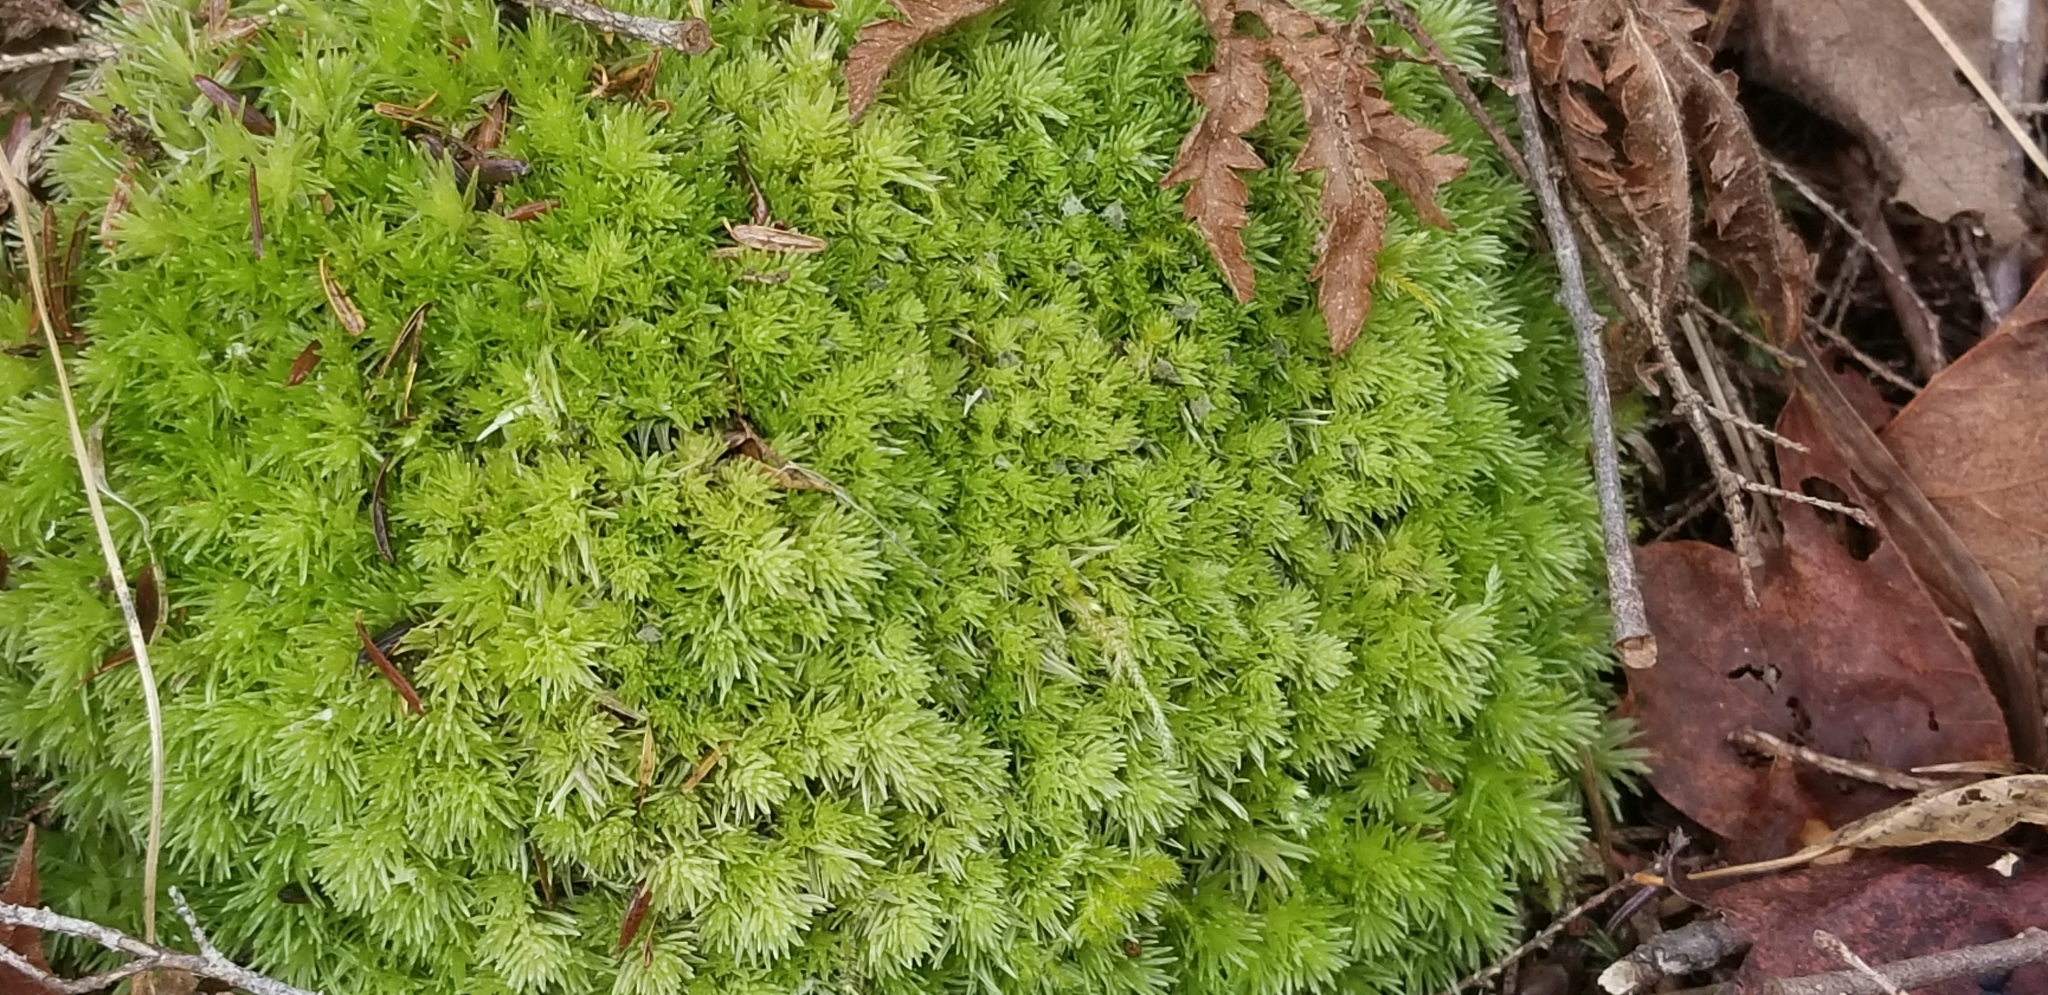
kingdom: Plantae
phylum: Bryophyta
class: Bryopsida
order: Dicranales
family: Leucobryaceae
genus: Leucobryum
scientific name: Leucobryum glaucum
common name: Large white-moss
